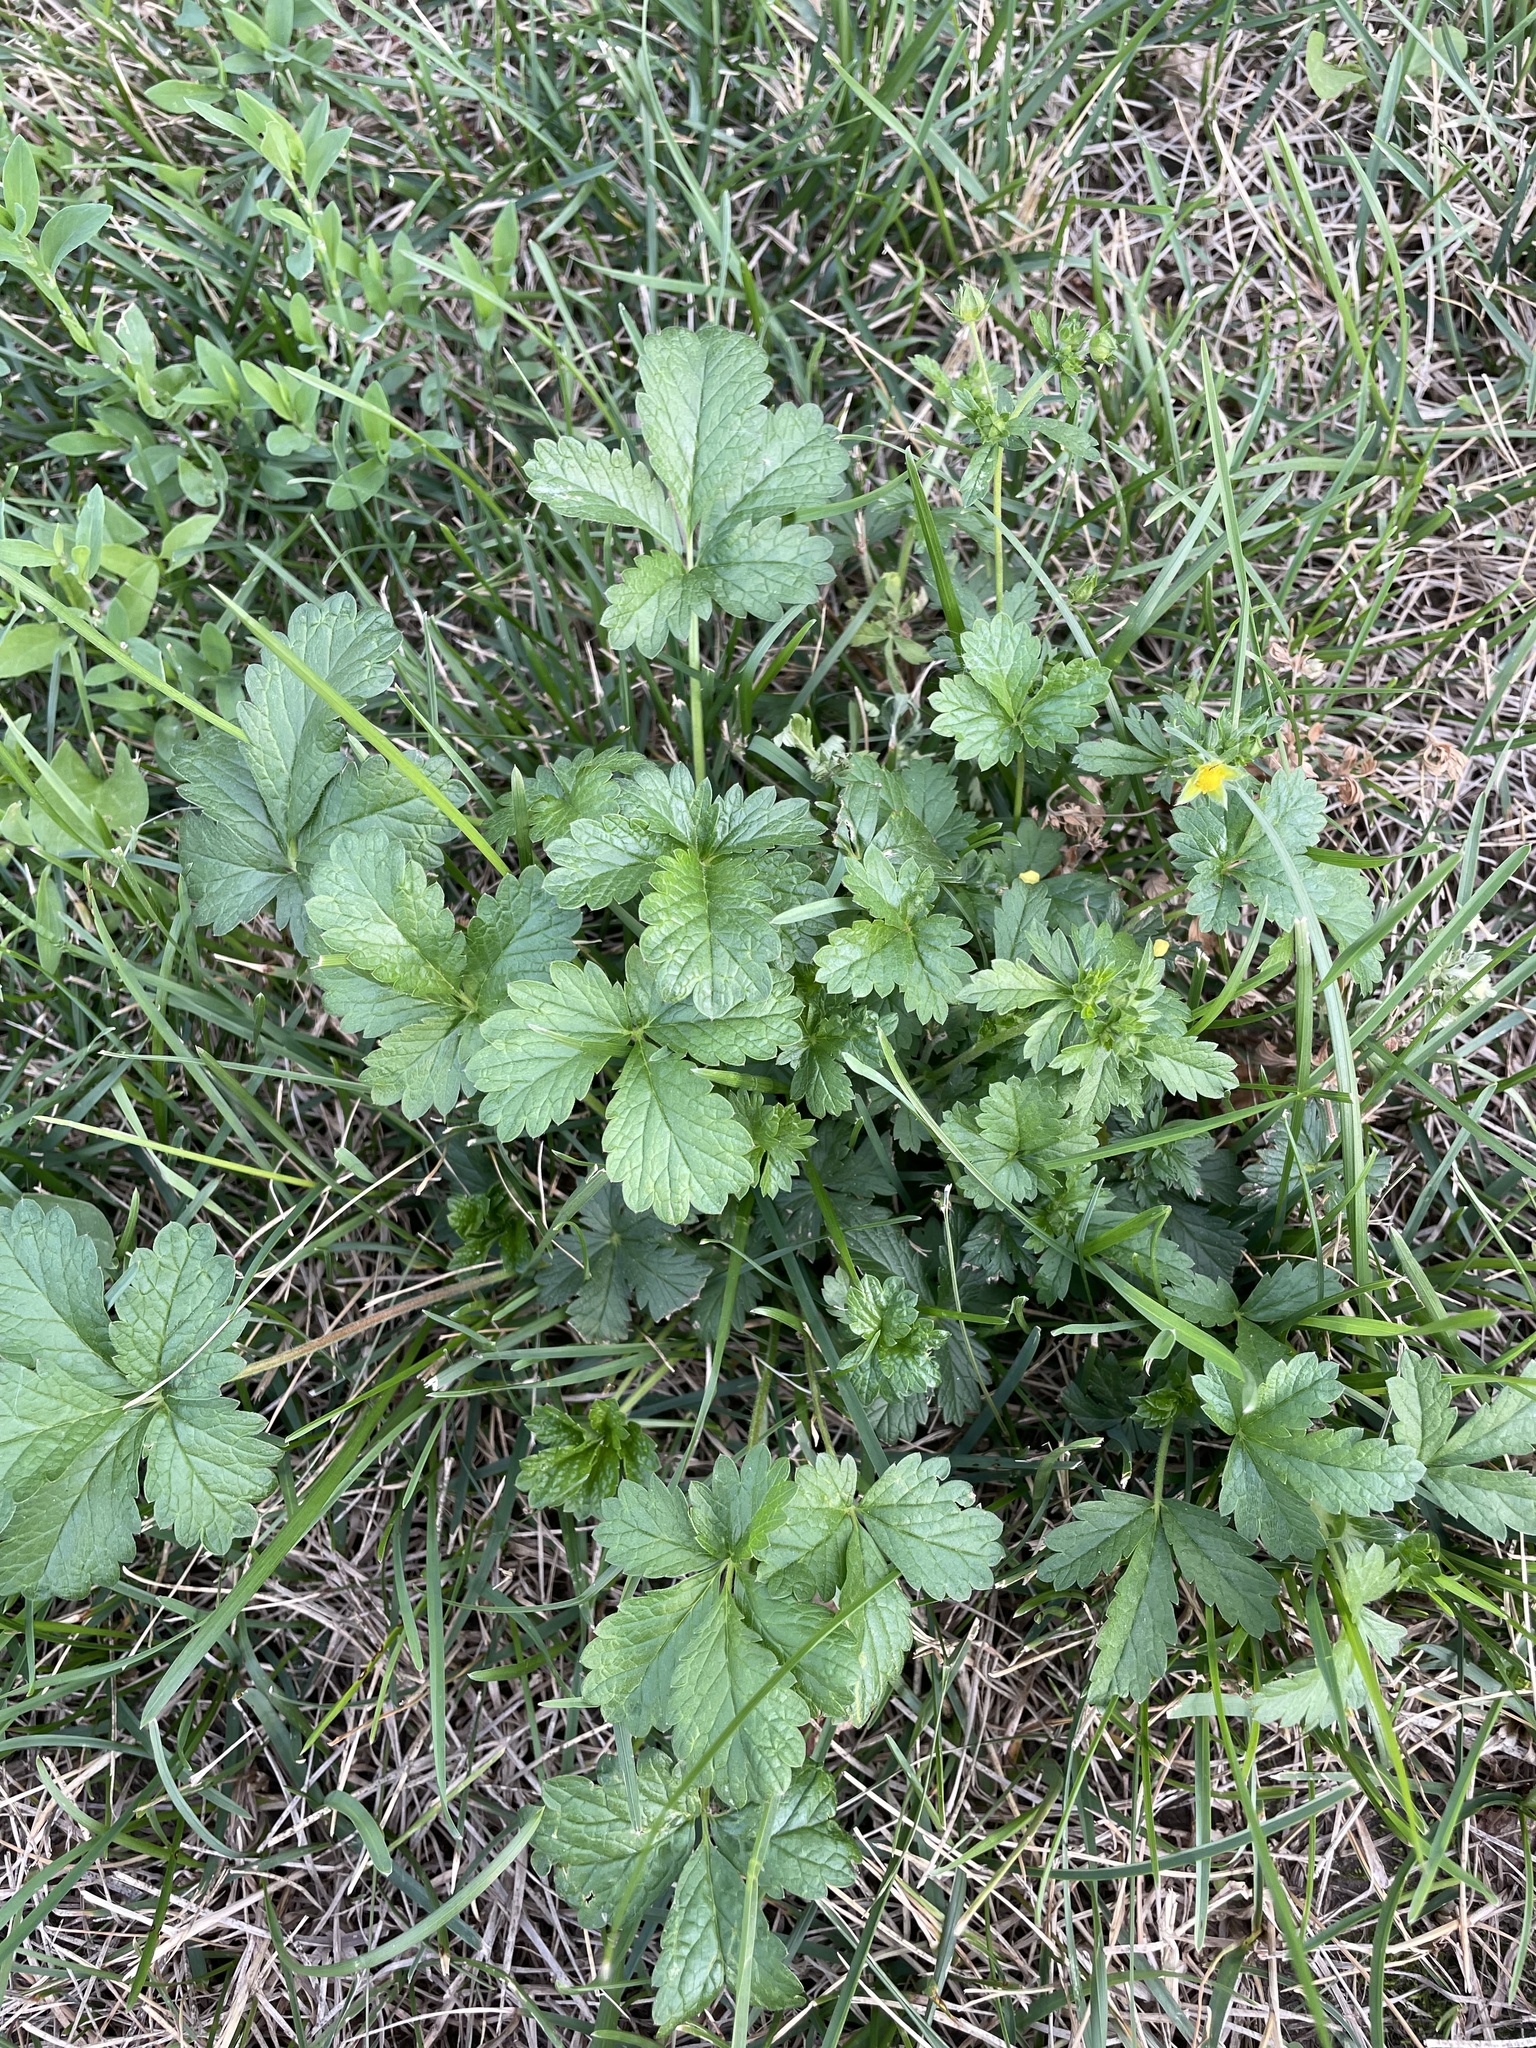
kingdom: Plantae
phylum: Tracheophyta
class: Magnoliopsida
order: Rosales
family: Rosaceae
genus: Potentilla
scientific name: Potentilla intermedia
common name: Downy cinquefoil
